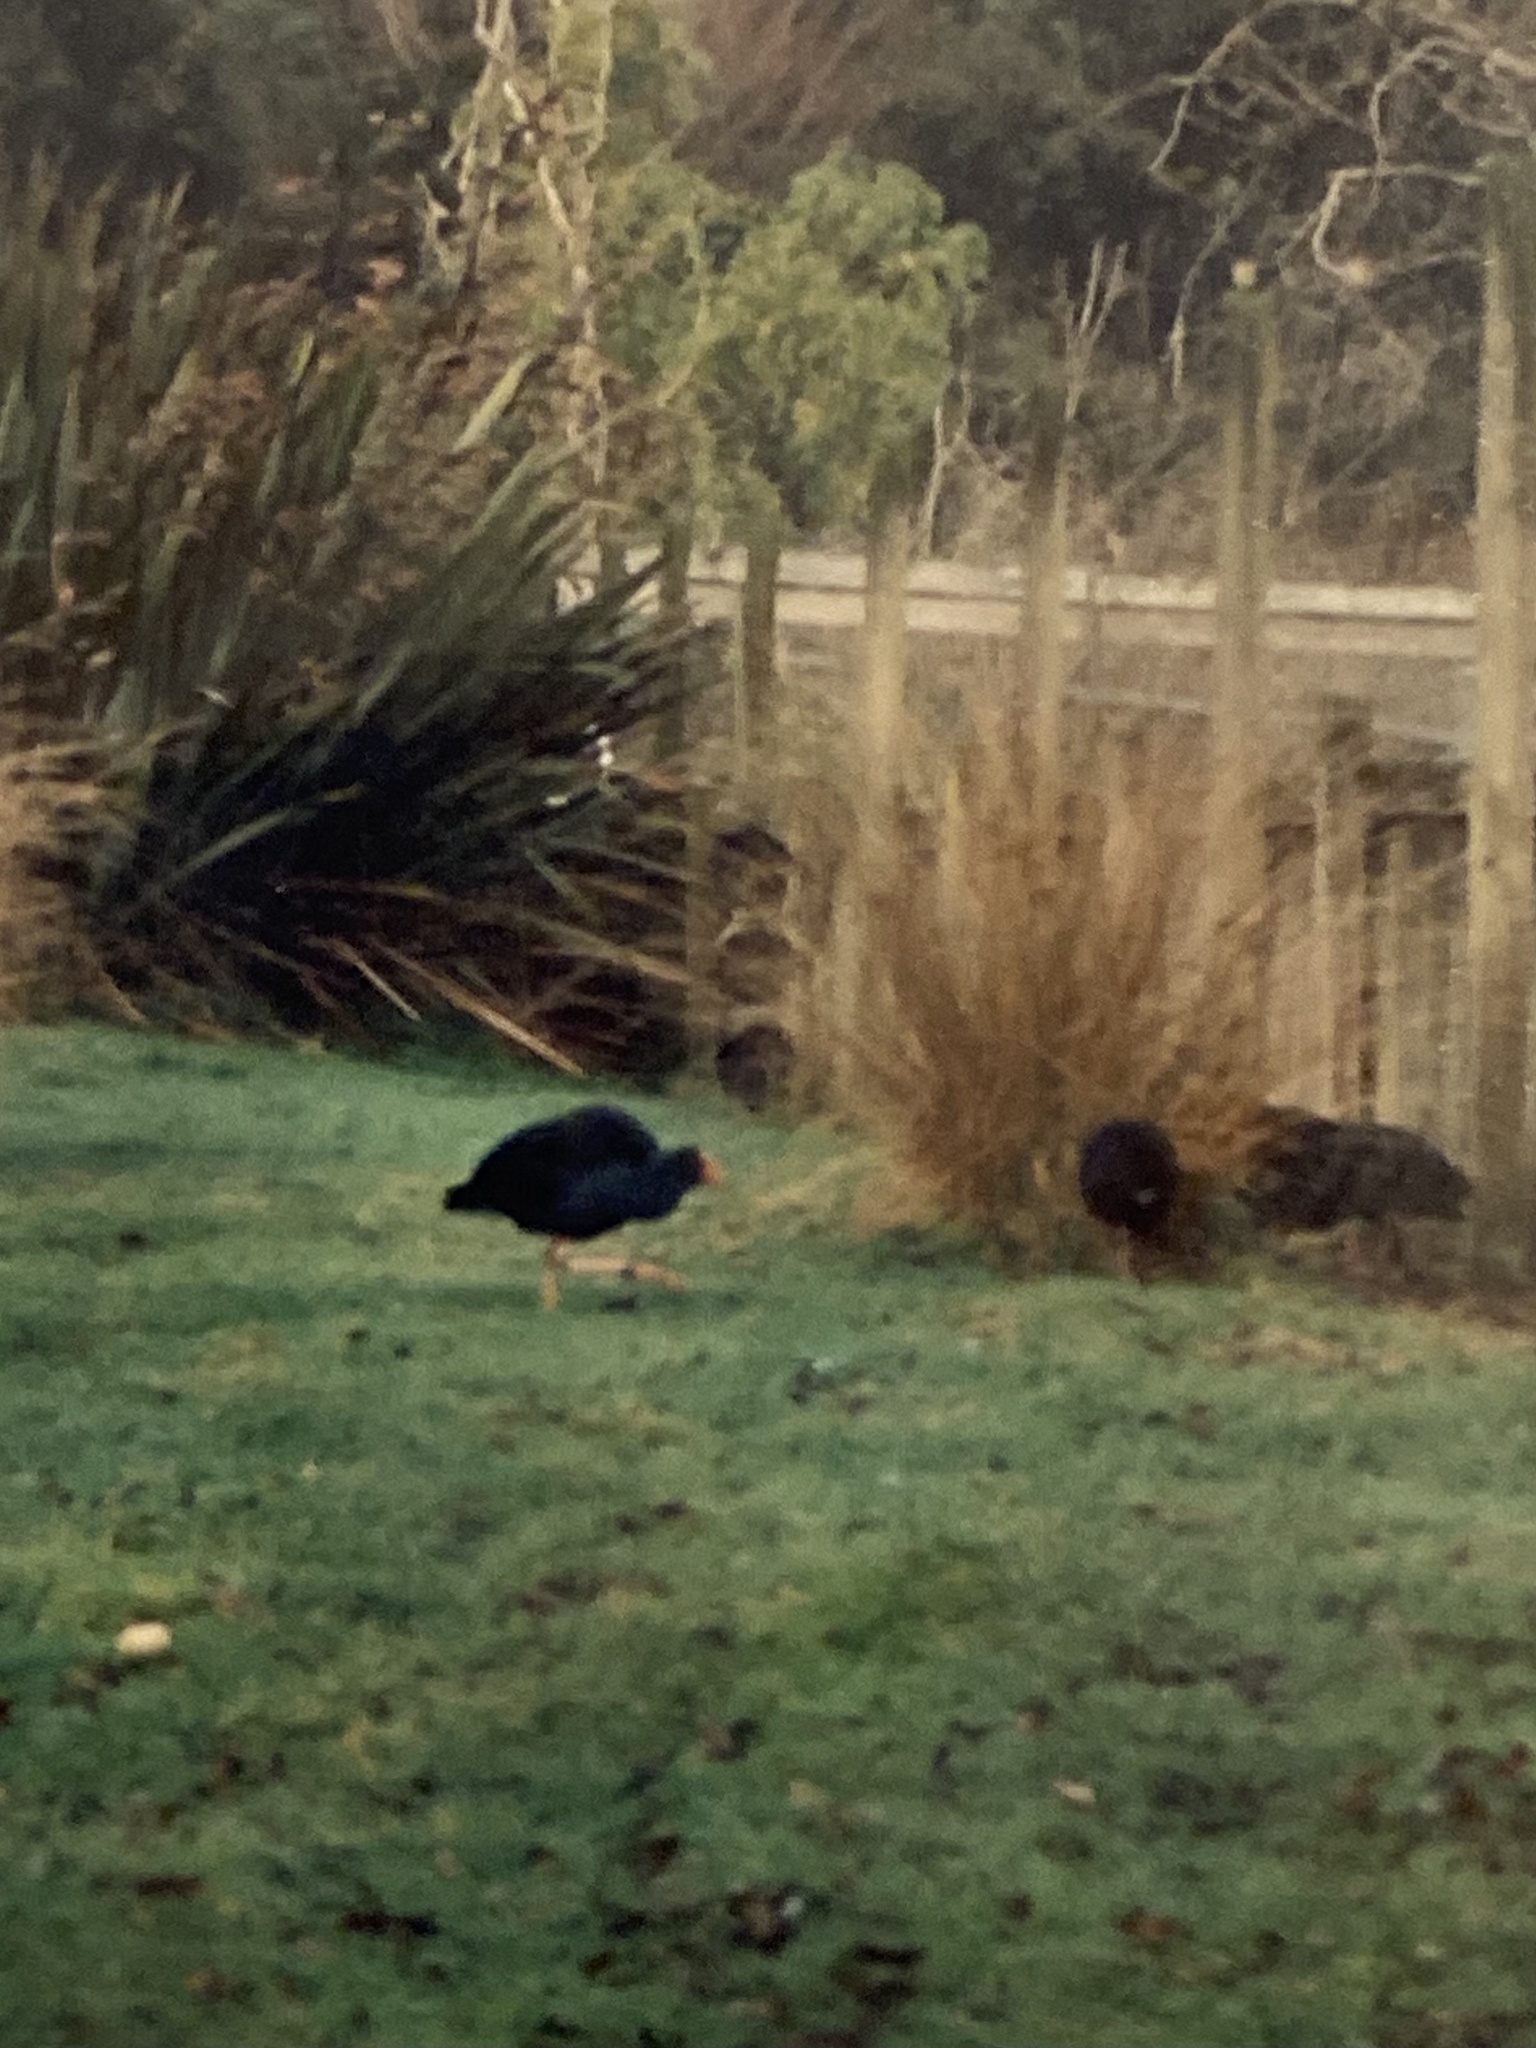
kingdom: Animalia
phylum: Chordata
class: Aves
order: Gruiformes
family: Rallidae
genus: Porphyrio
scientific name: Porphyrio melanotus
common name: Australasian swamphen
